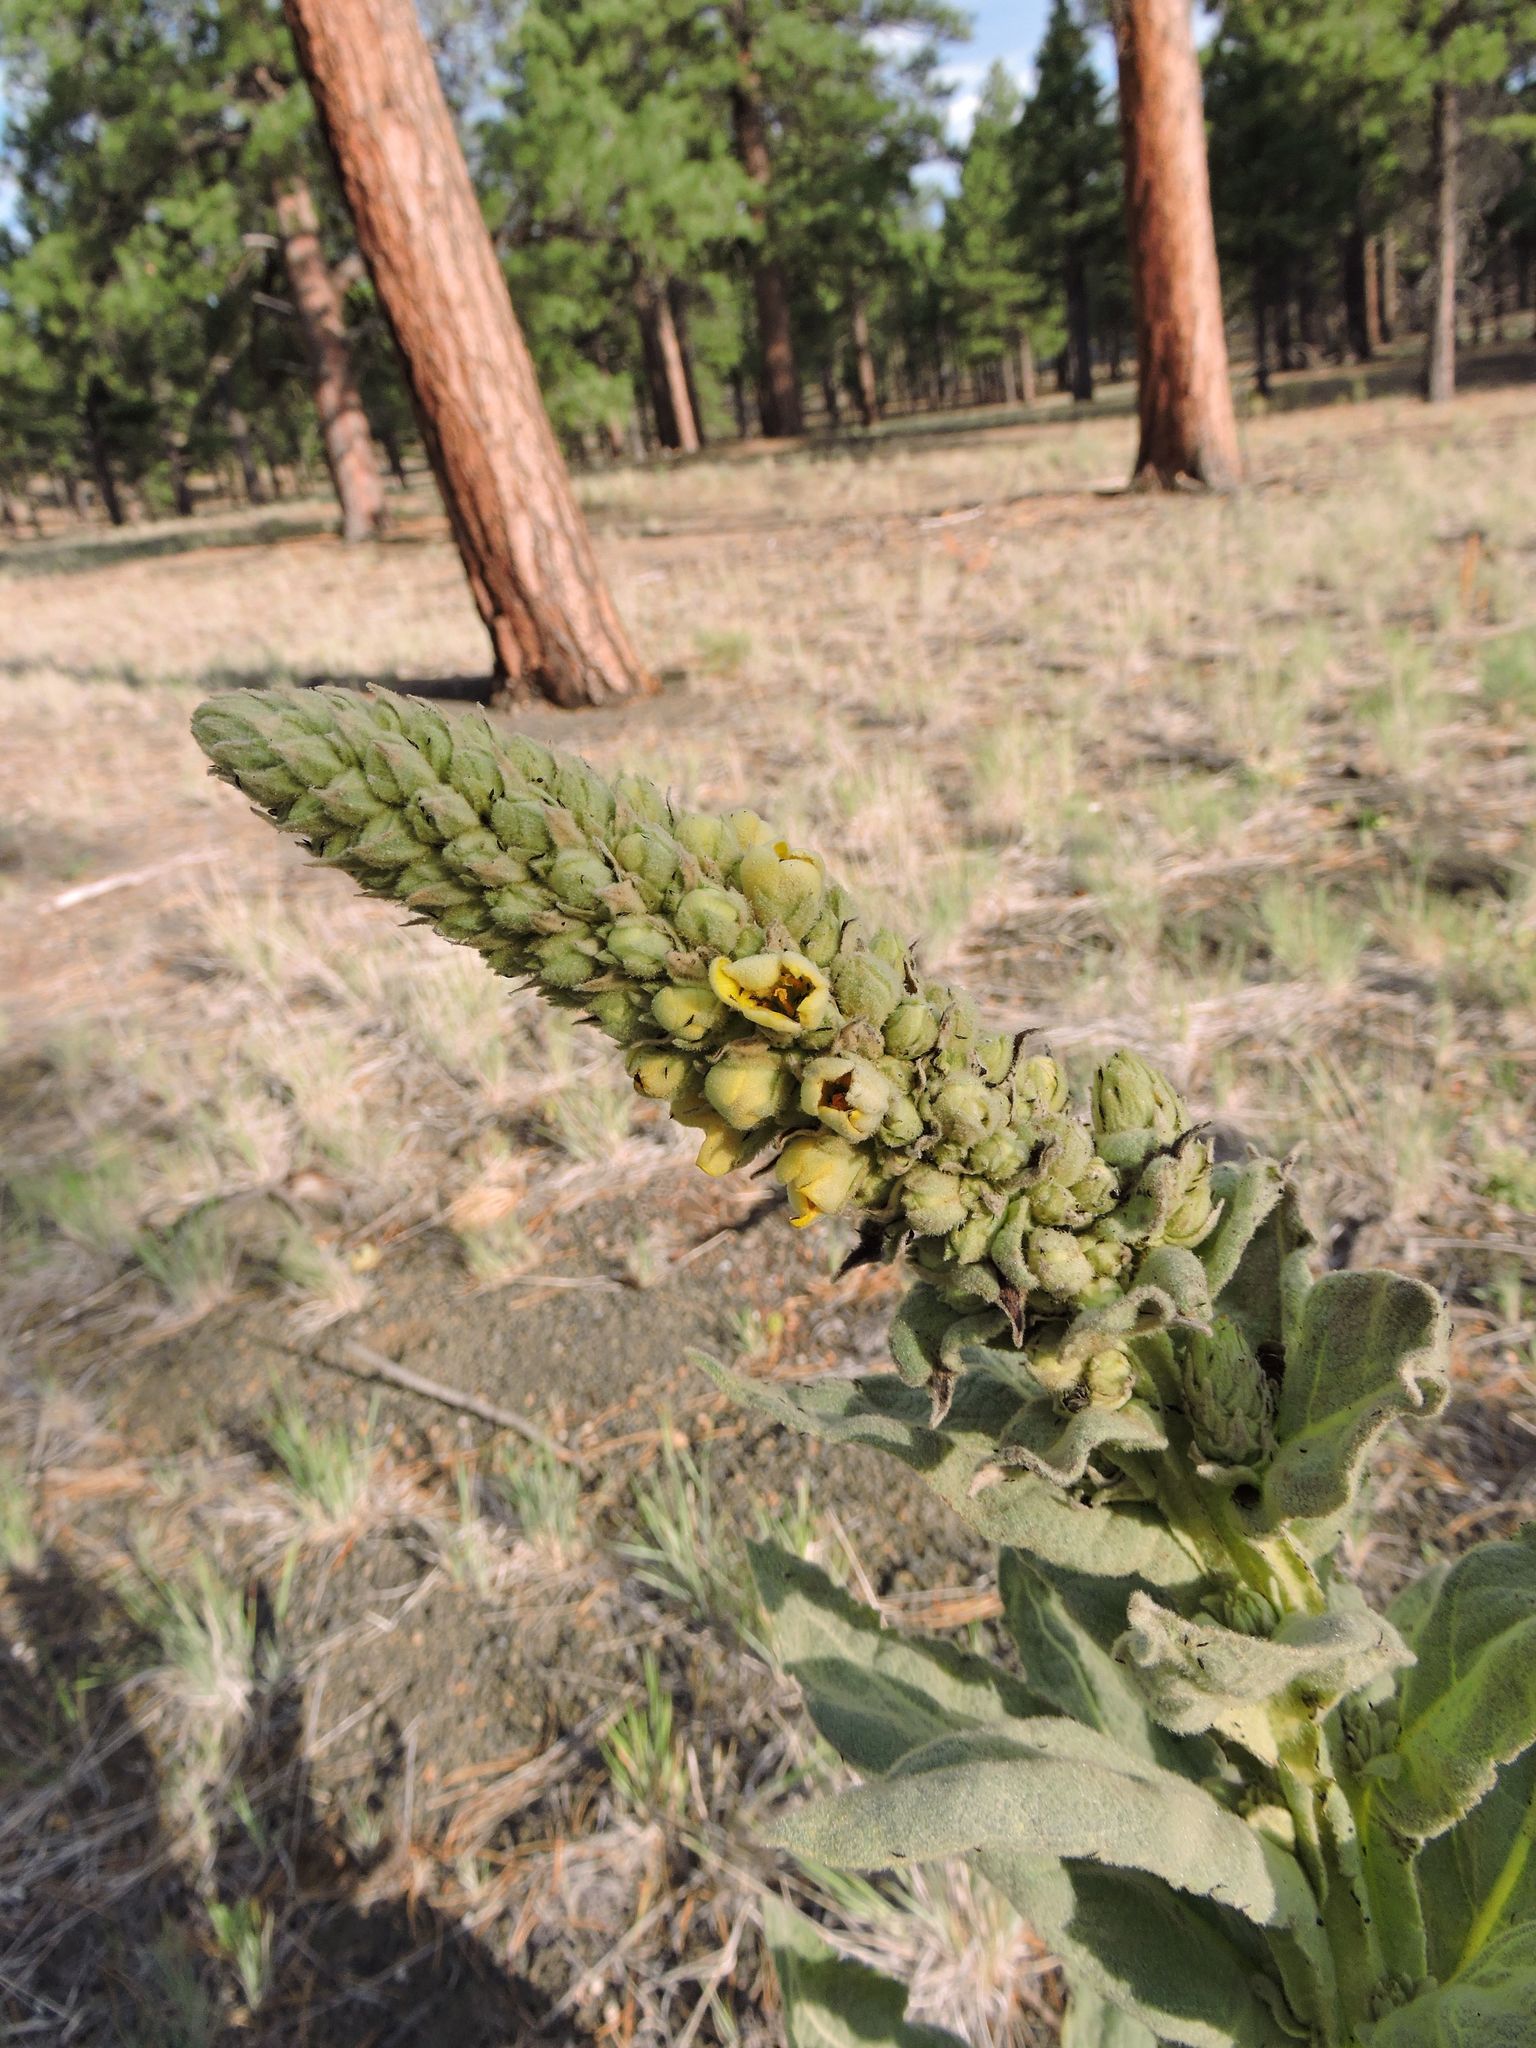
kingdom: Plantae
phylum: Tracheophyta
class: Magnoliopsida
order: Lamiales
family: Scrophulariaceae
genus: Verbascum
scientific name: Verbascum thapsus
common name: Common mullein
